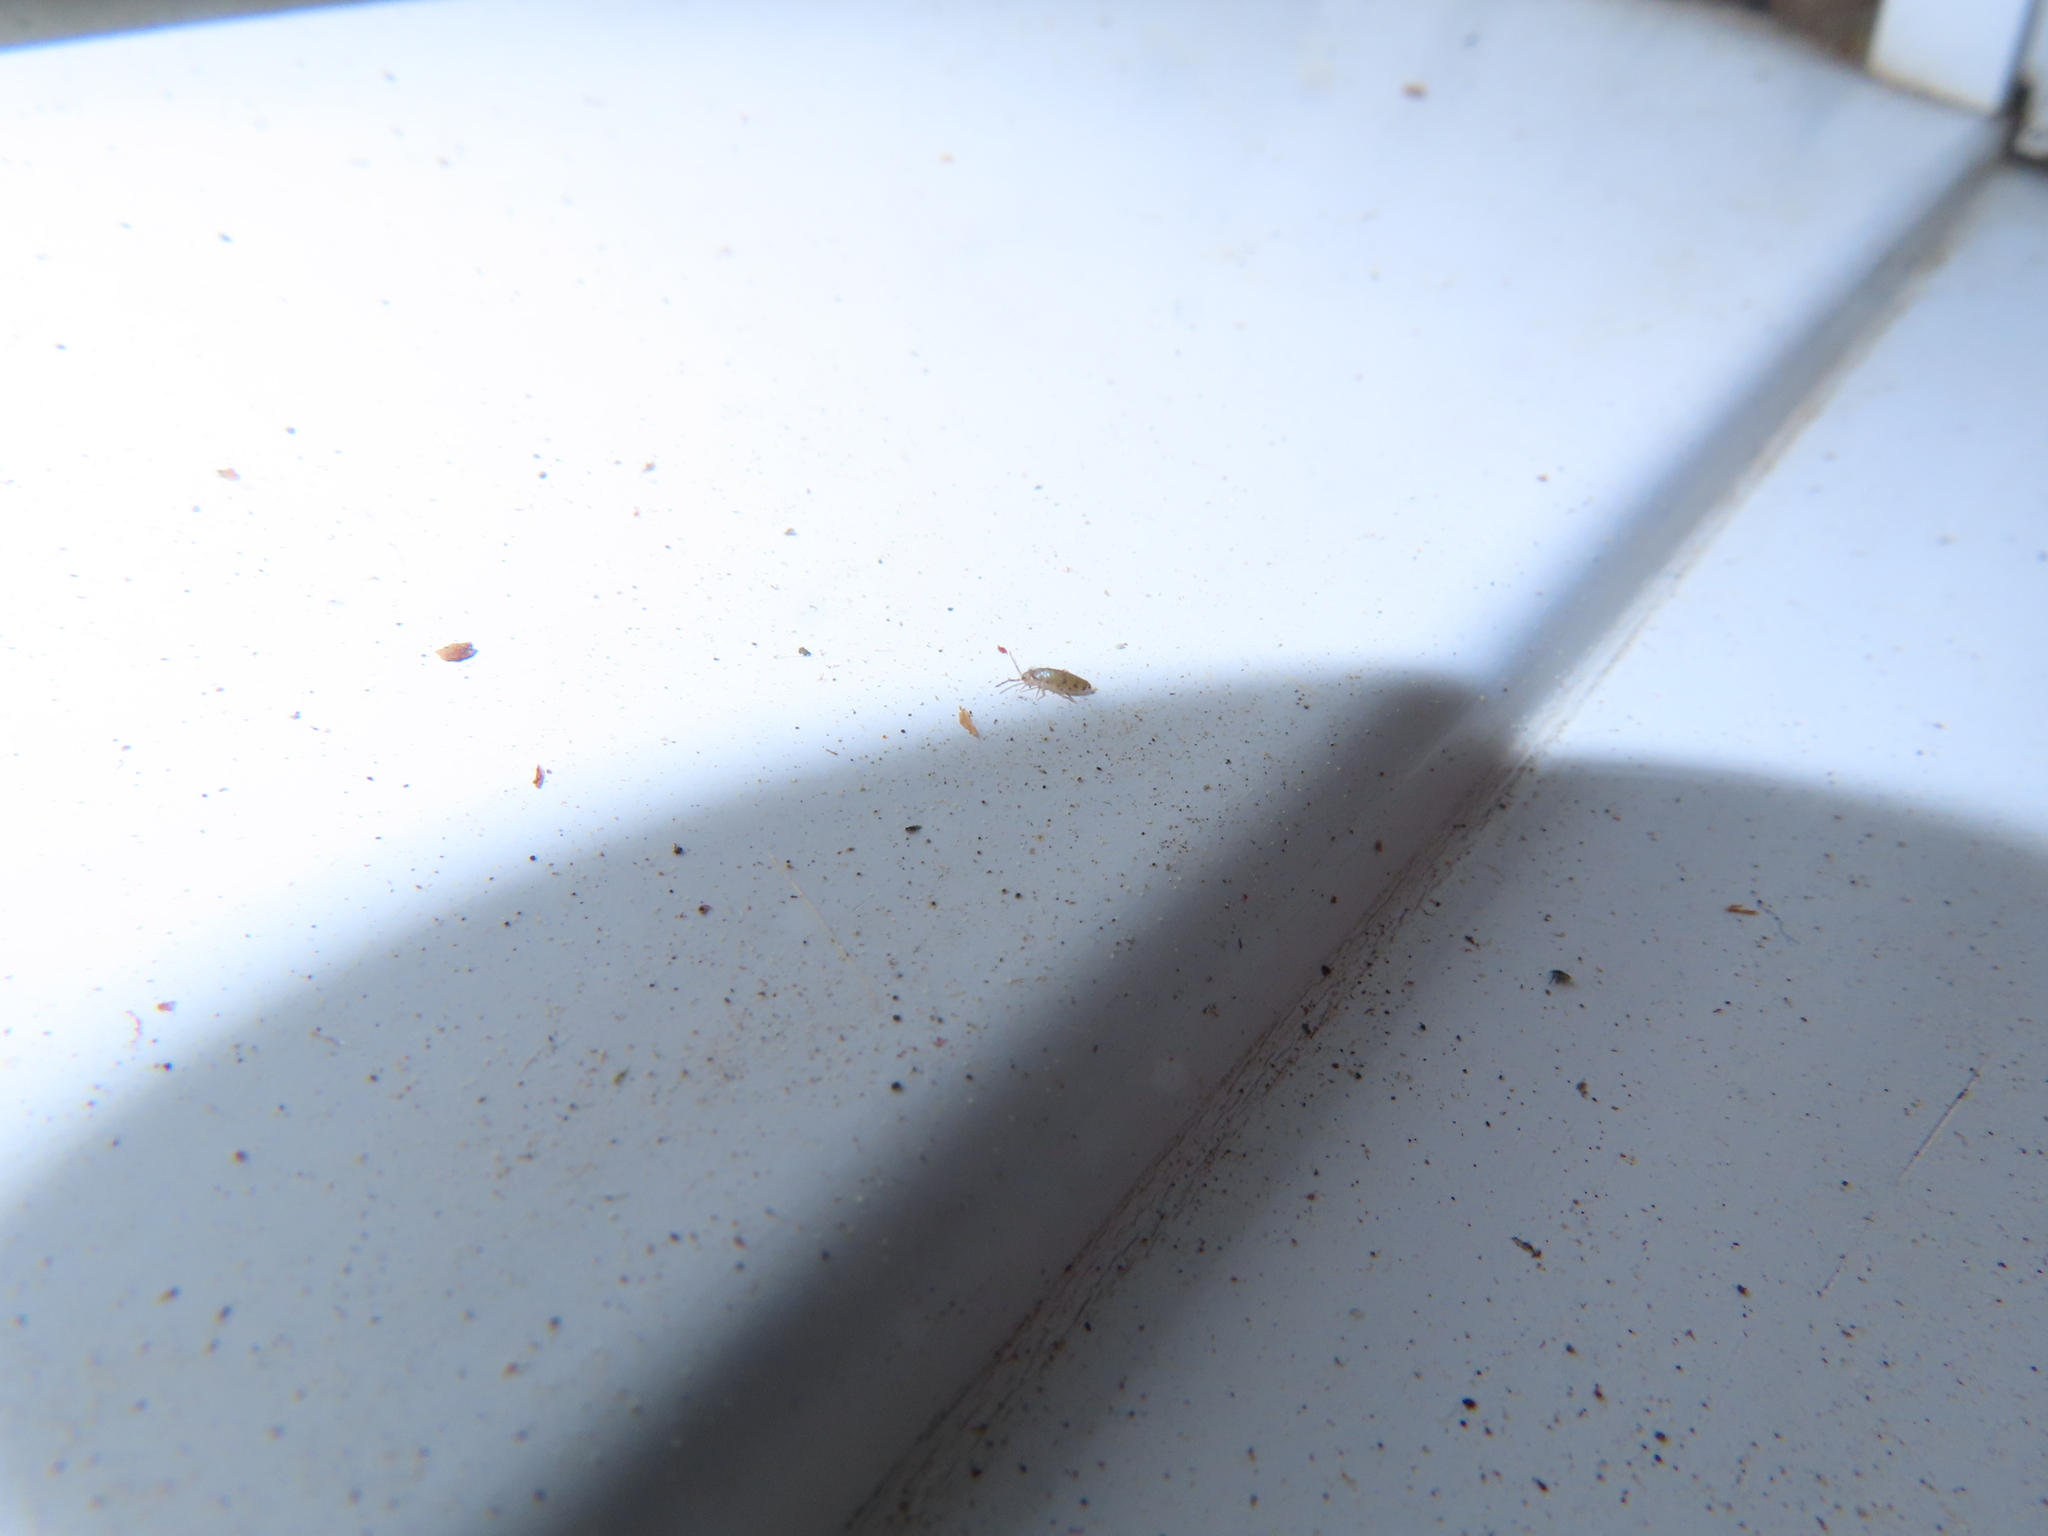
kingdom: Animalia
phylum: Arthropoda
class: Collembola
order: Entomobryomorpha
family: Entomobryidae
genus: Willowsia
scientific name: Willowsia nigromaculata
